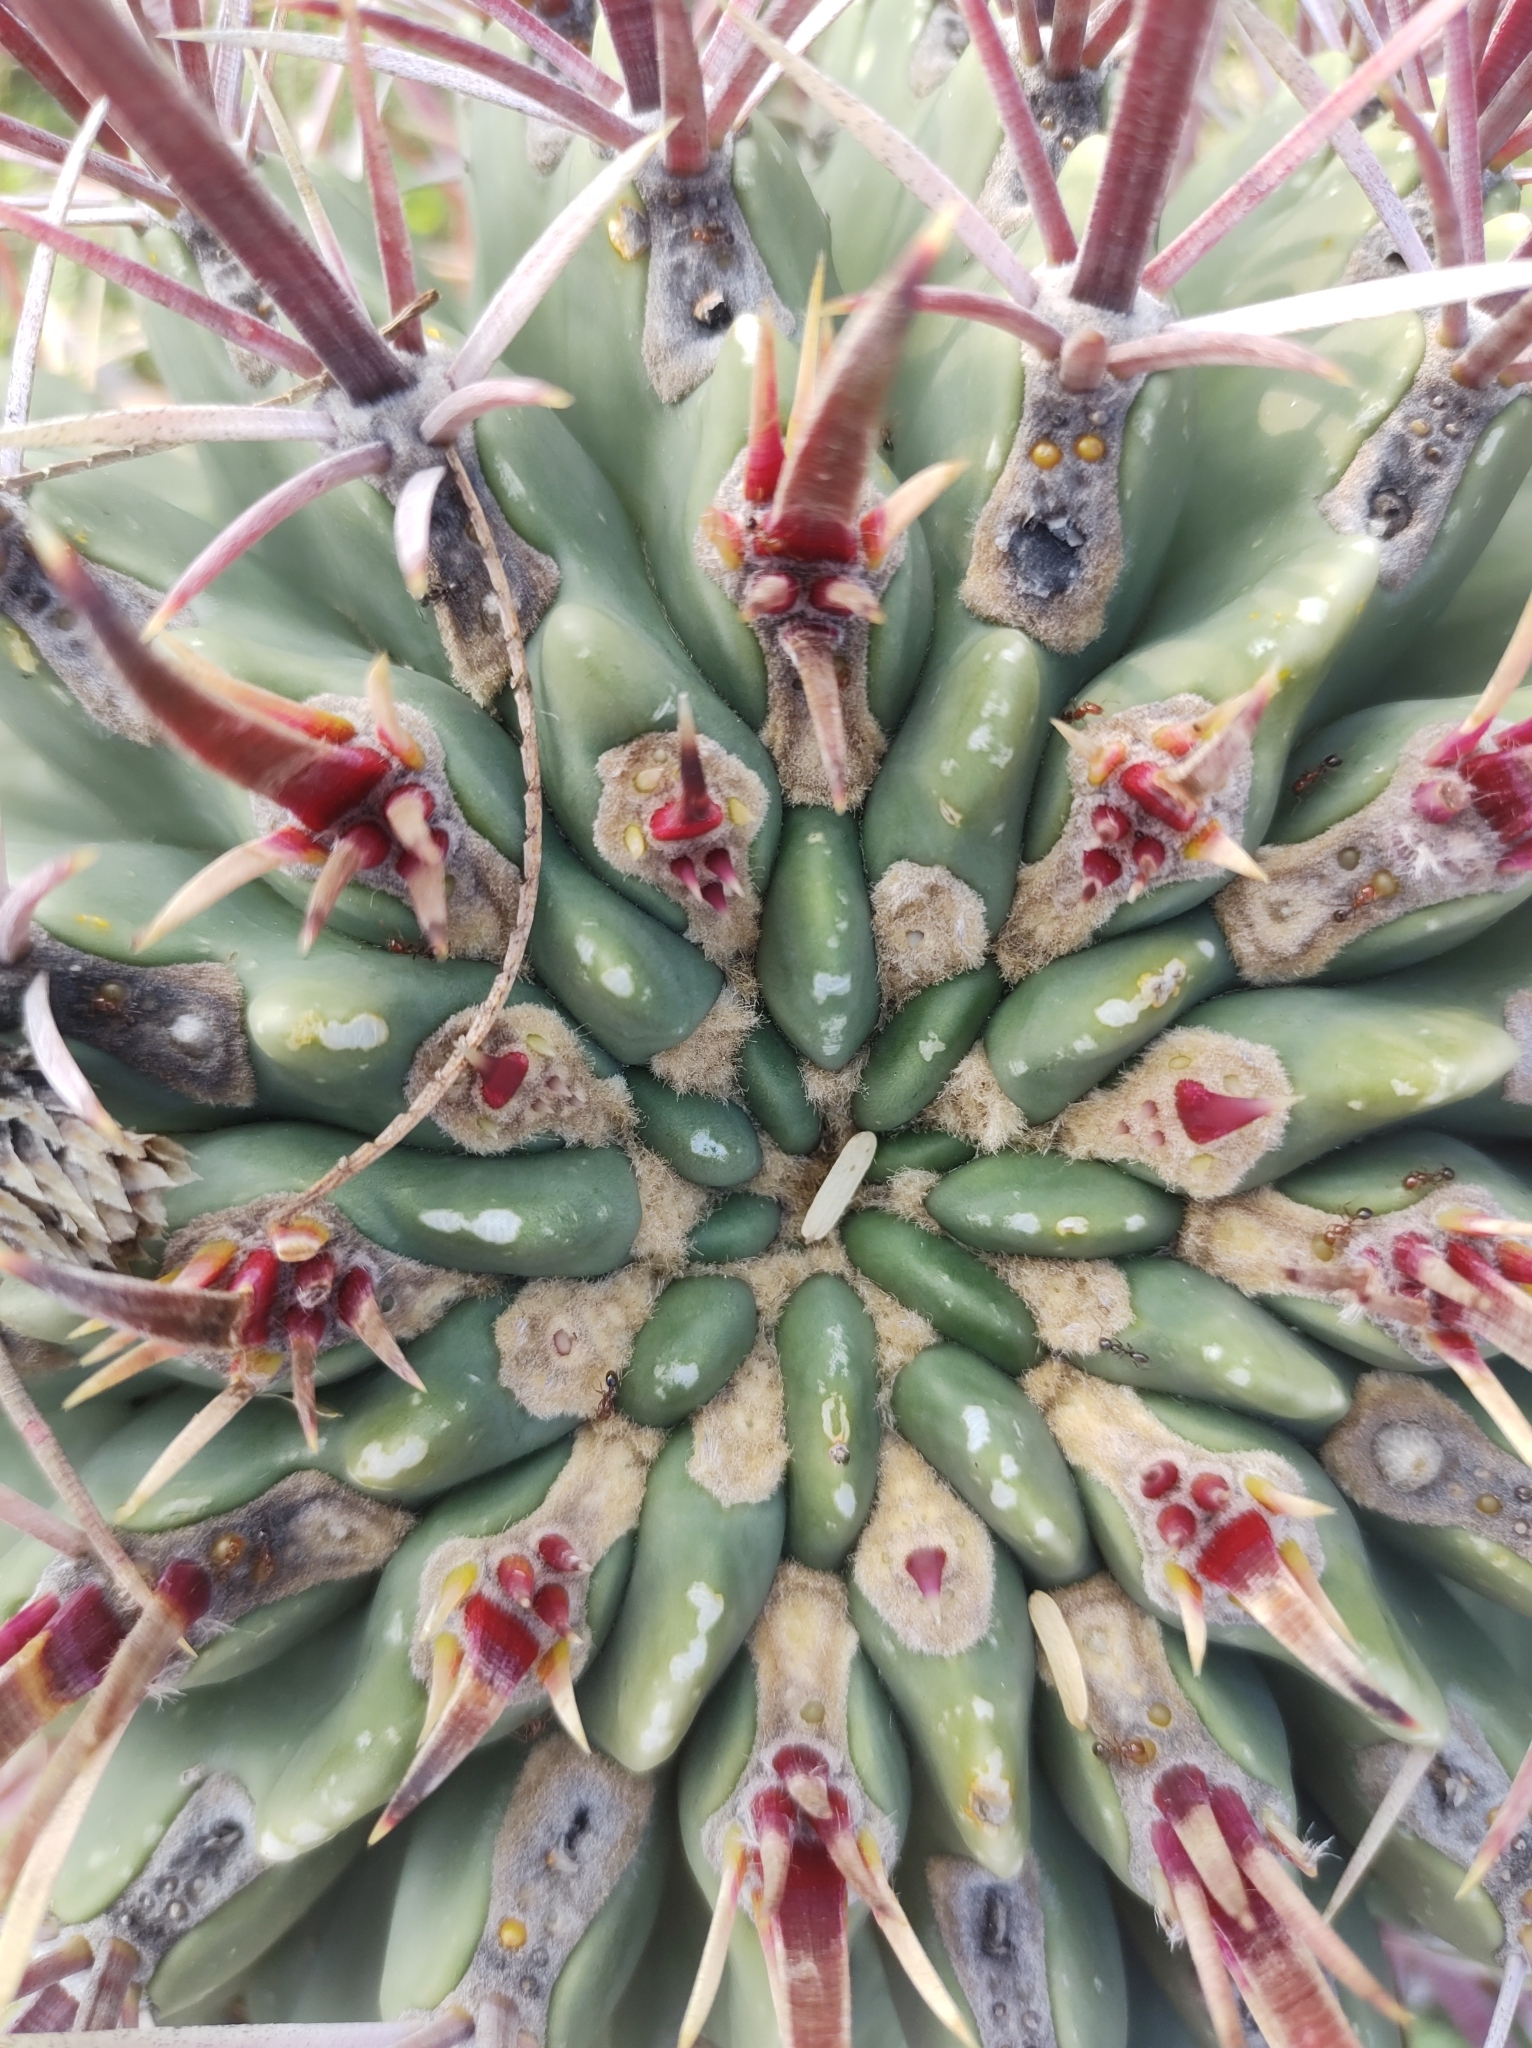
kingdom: Plantae
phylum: Tracheophyta
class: Magnoliopsida
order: Caryophyllales
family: Cactaceae
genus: Ferocactus
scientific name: Ferocactus latispinus
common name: Devil's-tongue cactus
